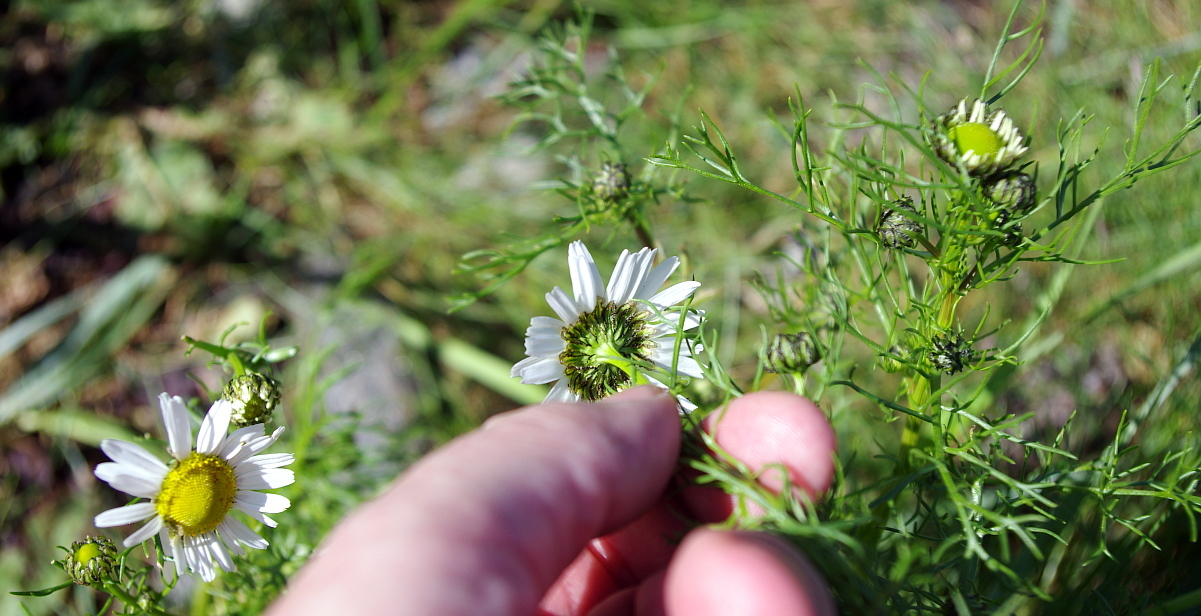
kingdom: Plantae
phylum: Tracheophyta
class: Magnoliopsida
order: Asterales
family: Asteraceae
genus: Tripleurospermum
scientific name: Tripleurospermum maritimum
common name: Sea mayweed
